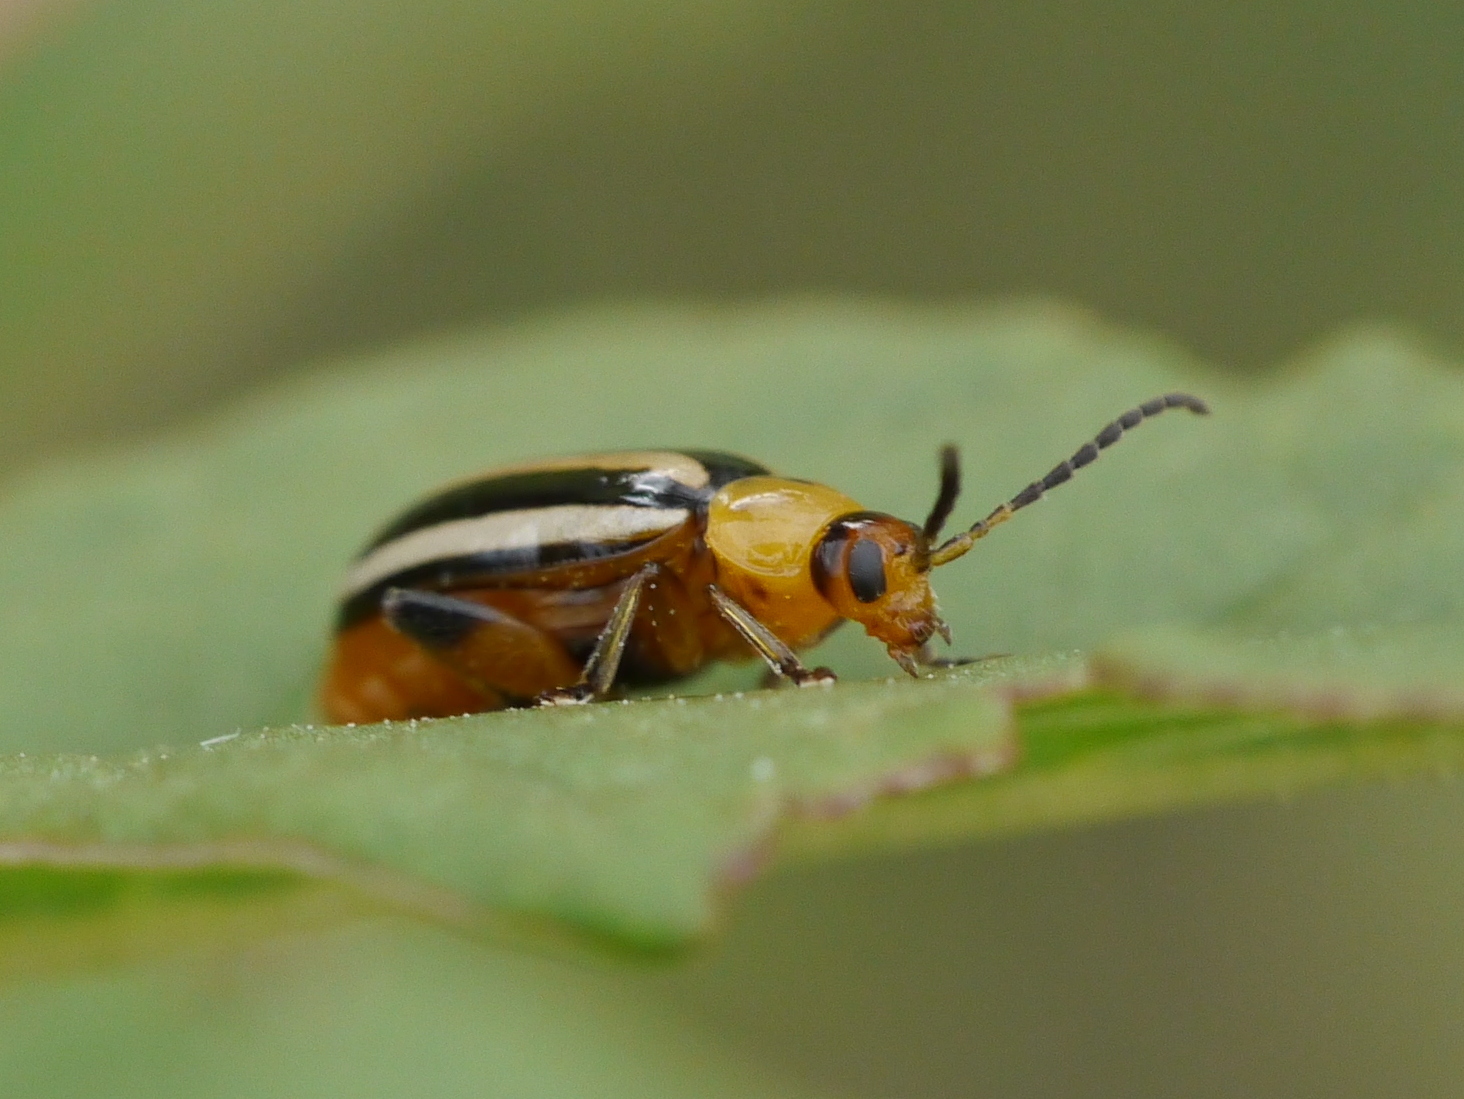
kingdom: Animalia
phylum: Arthropoda
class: Insecta
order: Coleoptera
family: Chrysomelidae
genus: Disonycha
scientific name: Disonycha glabrata
